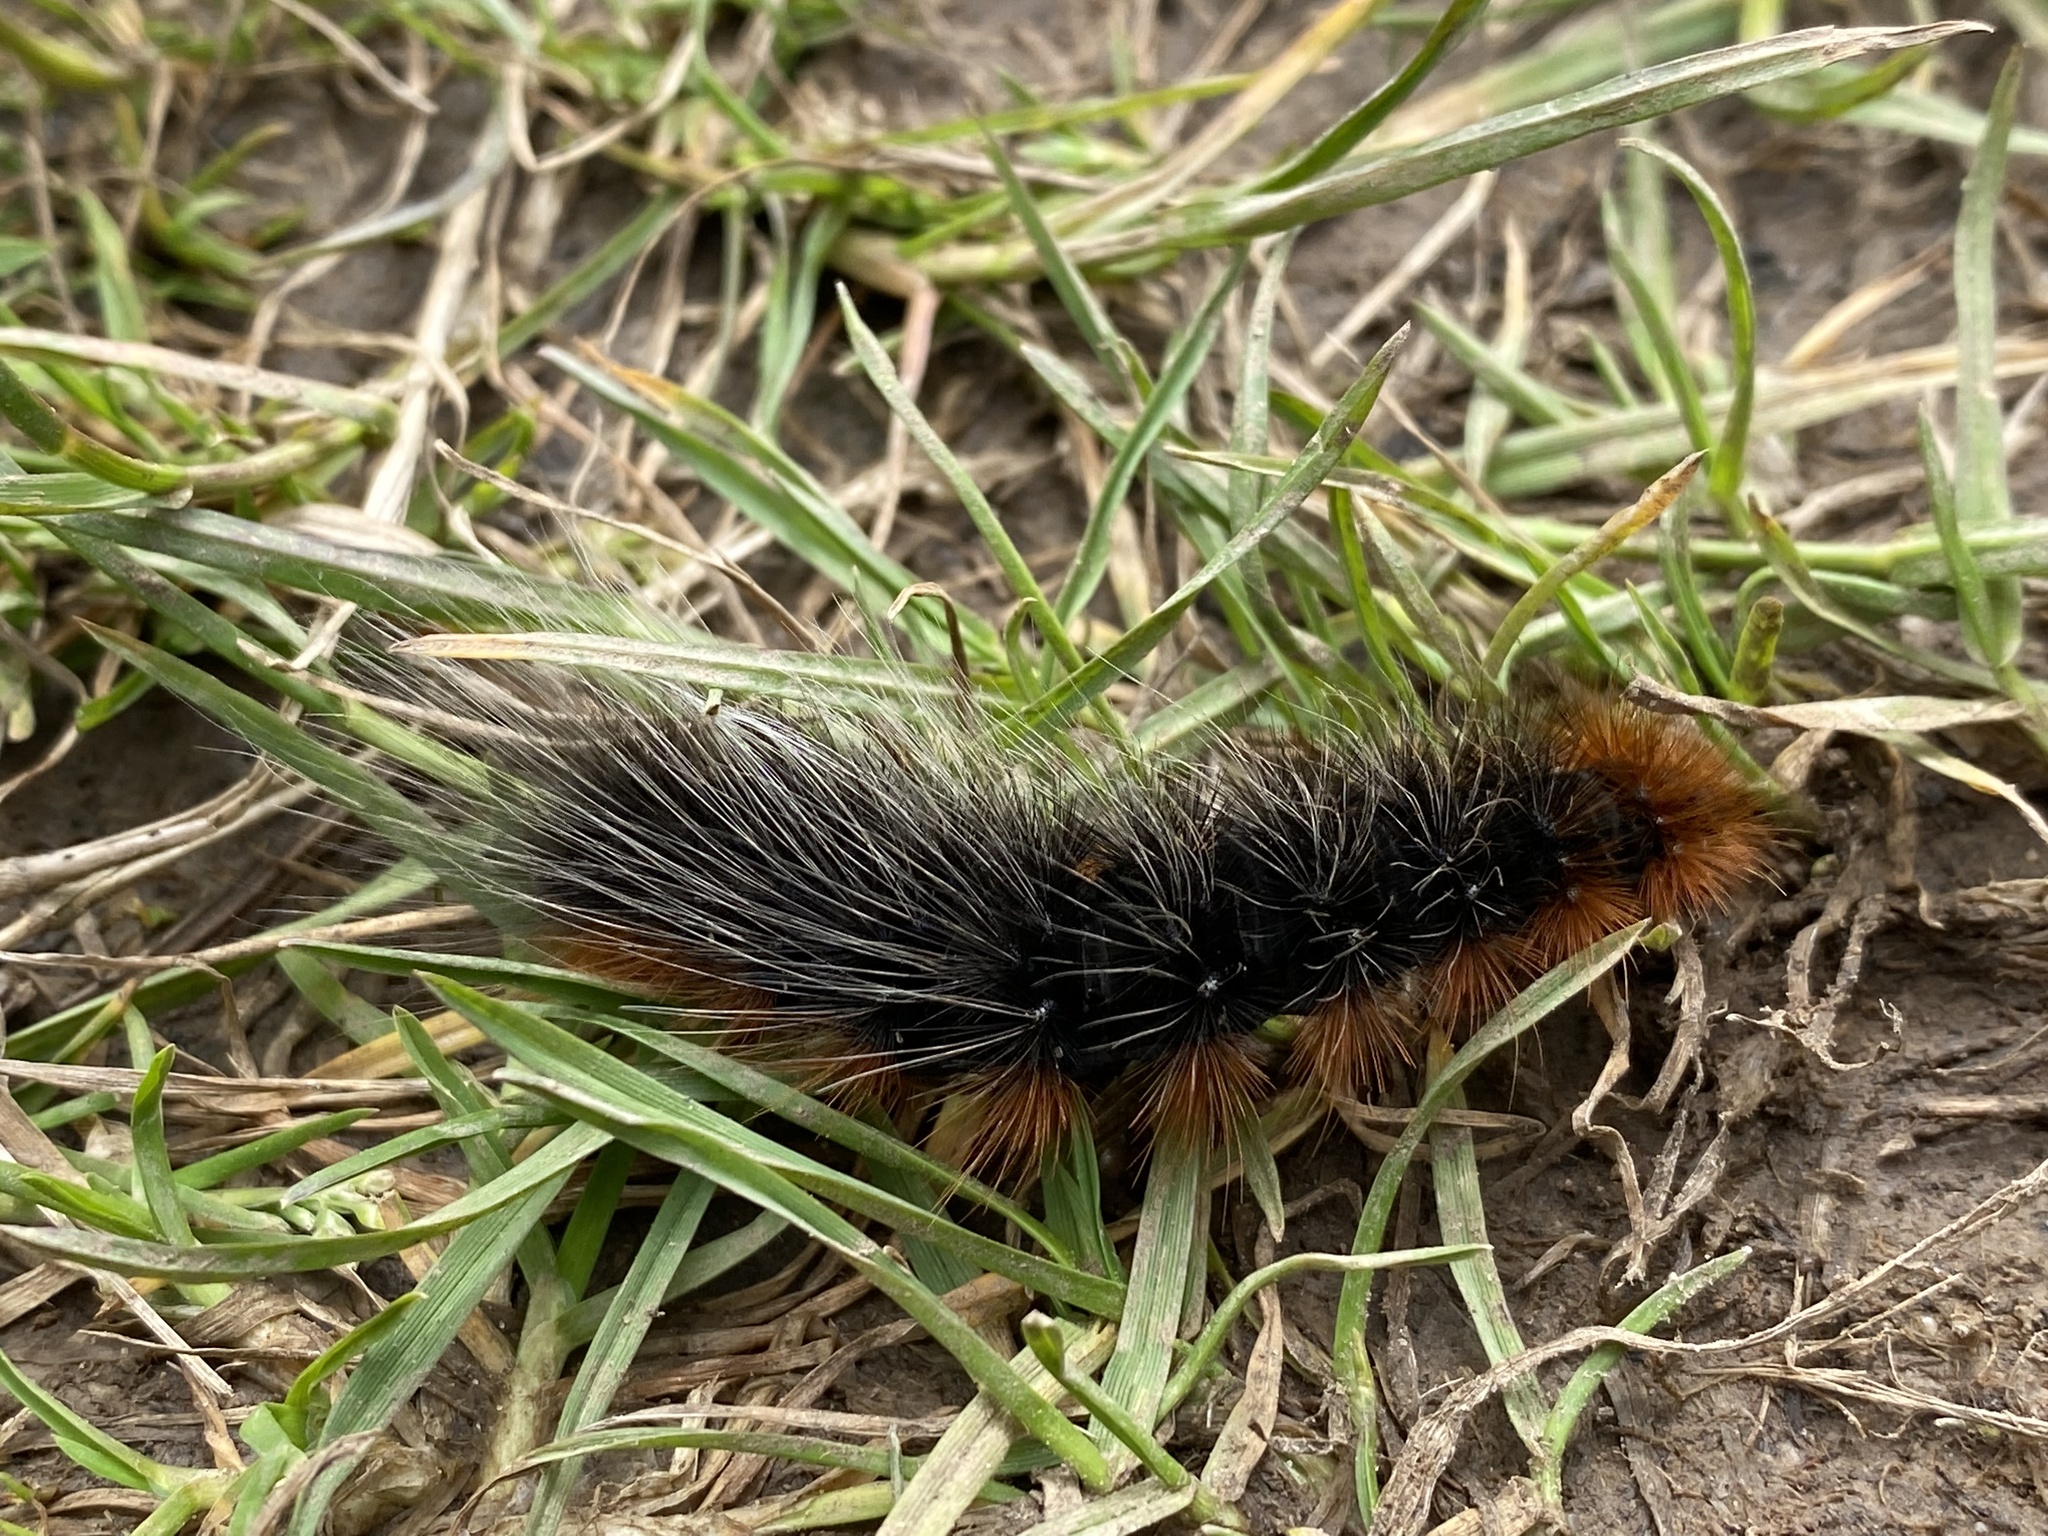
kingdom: Animalia
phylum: Arthropoda
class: Insecta
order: Lepidoptera
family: Erebidae
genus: Arctia
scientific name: Arctia caja
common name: Garden tiger
